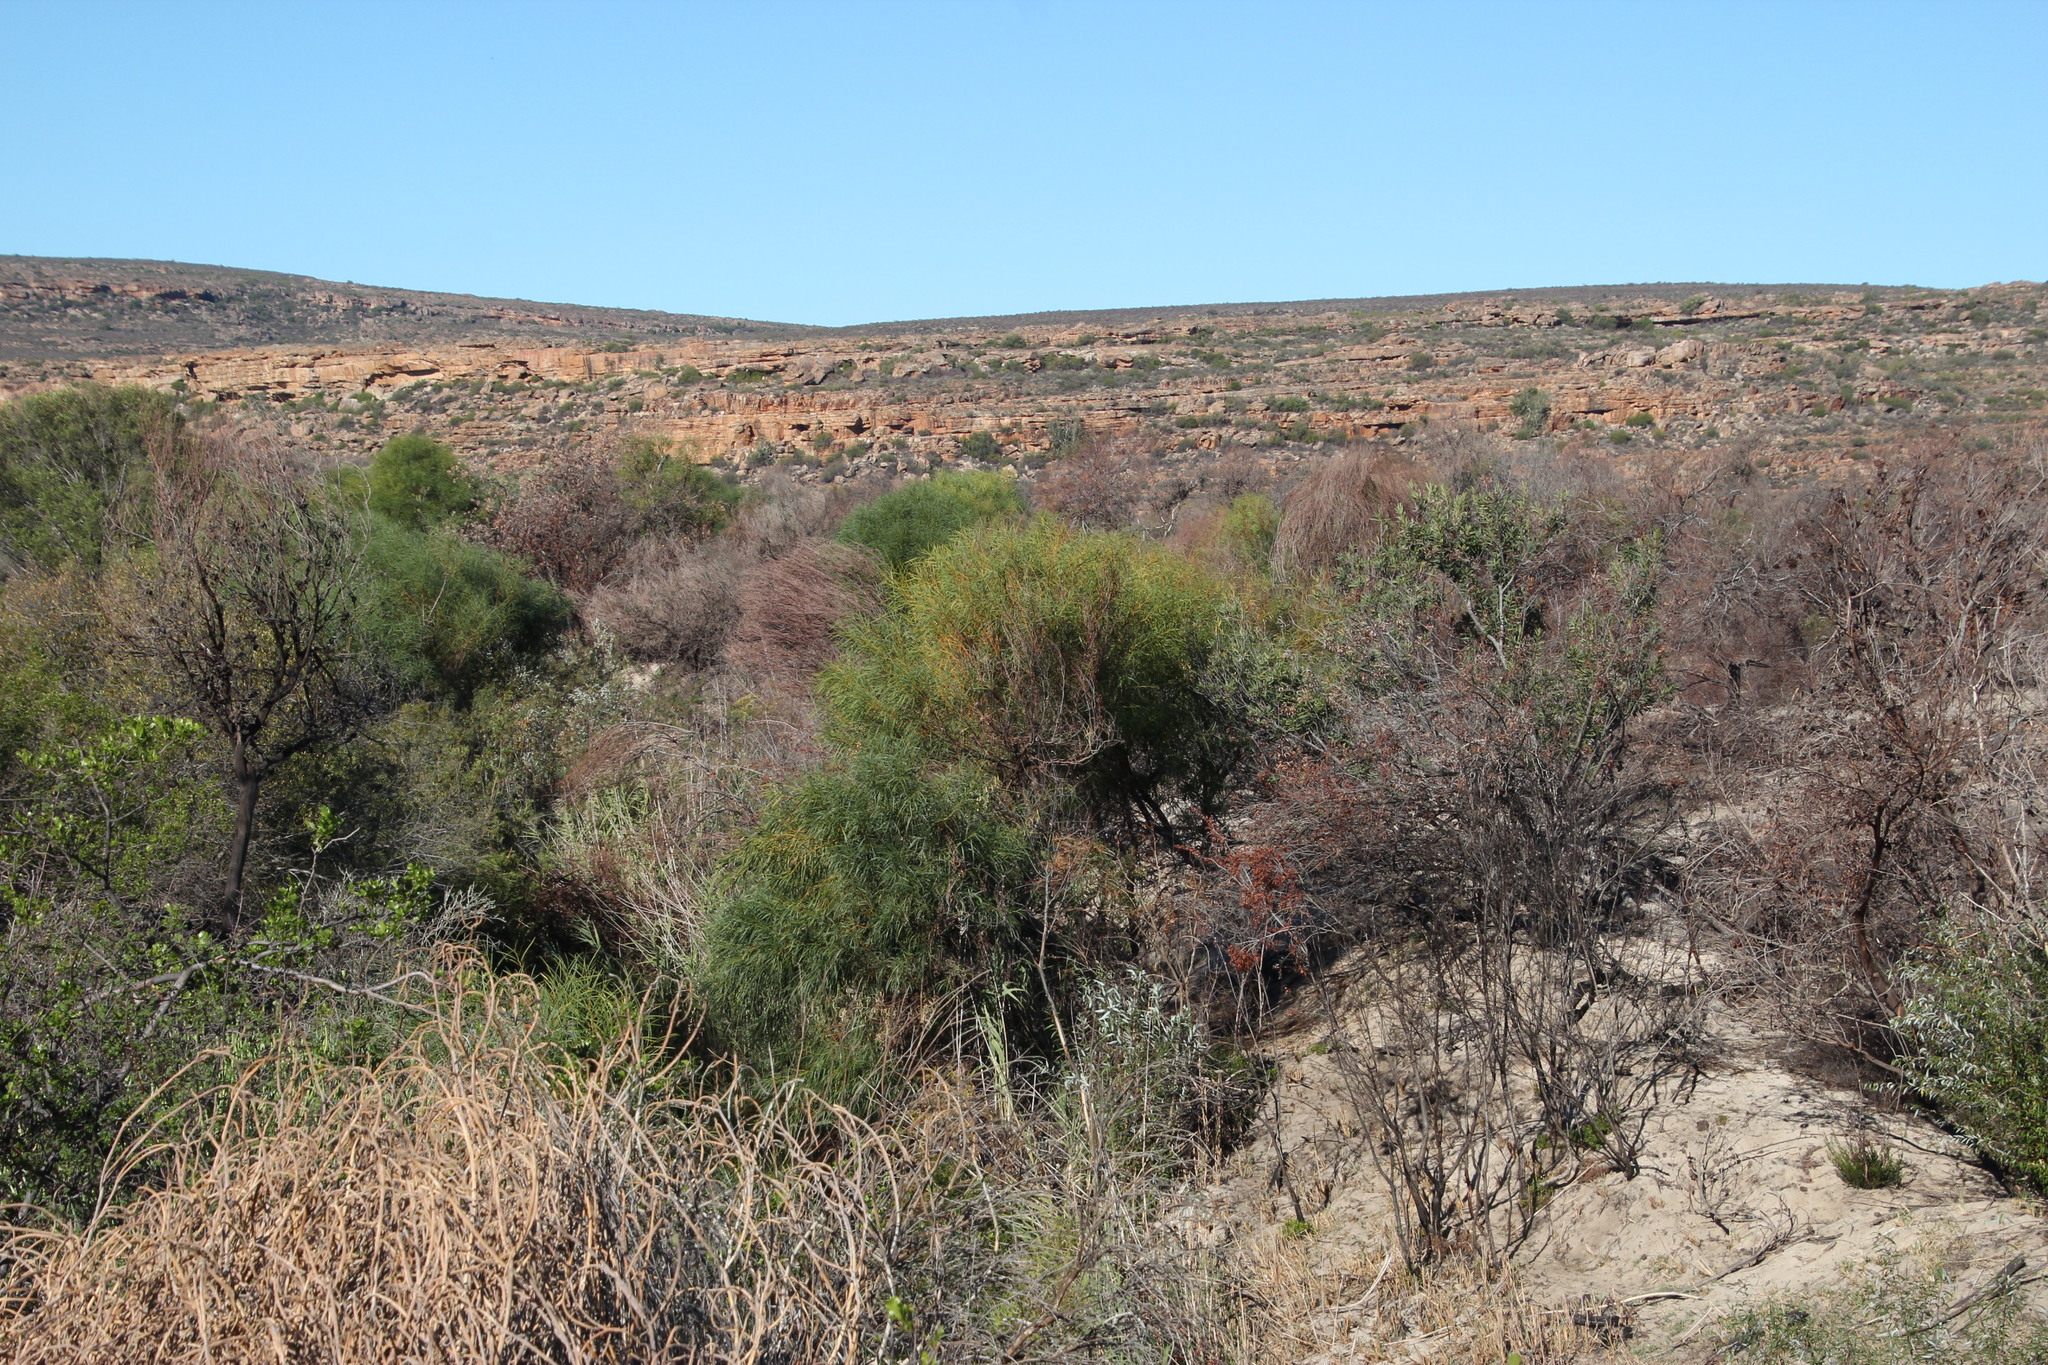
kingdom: Plantae
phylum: Tracheophyta
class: Magnoliopsida
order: Fabales
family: Fabaceae
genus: Acacia
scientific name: Acacia saligna
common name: Orange wattle
